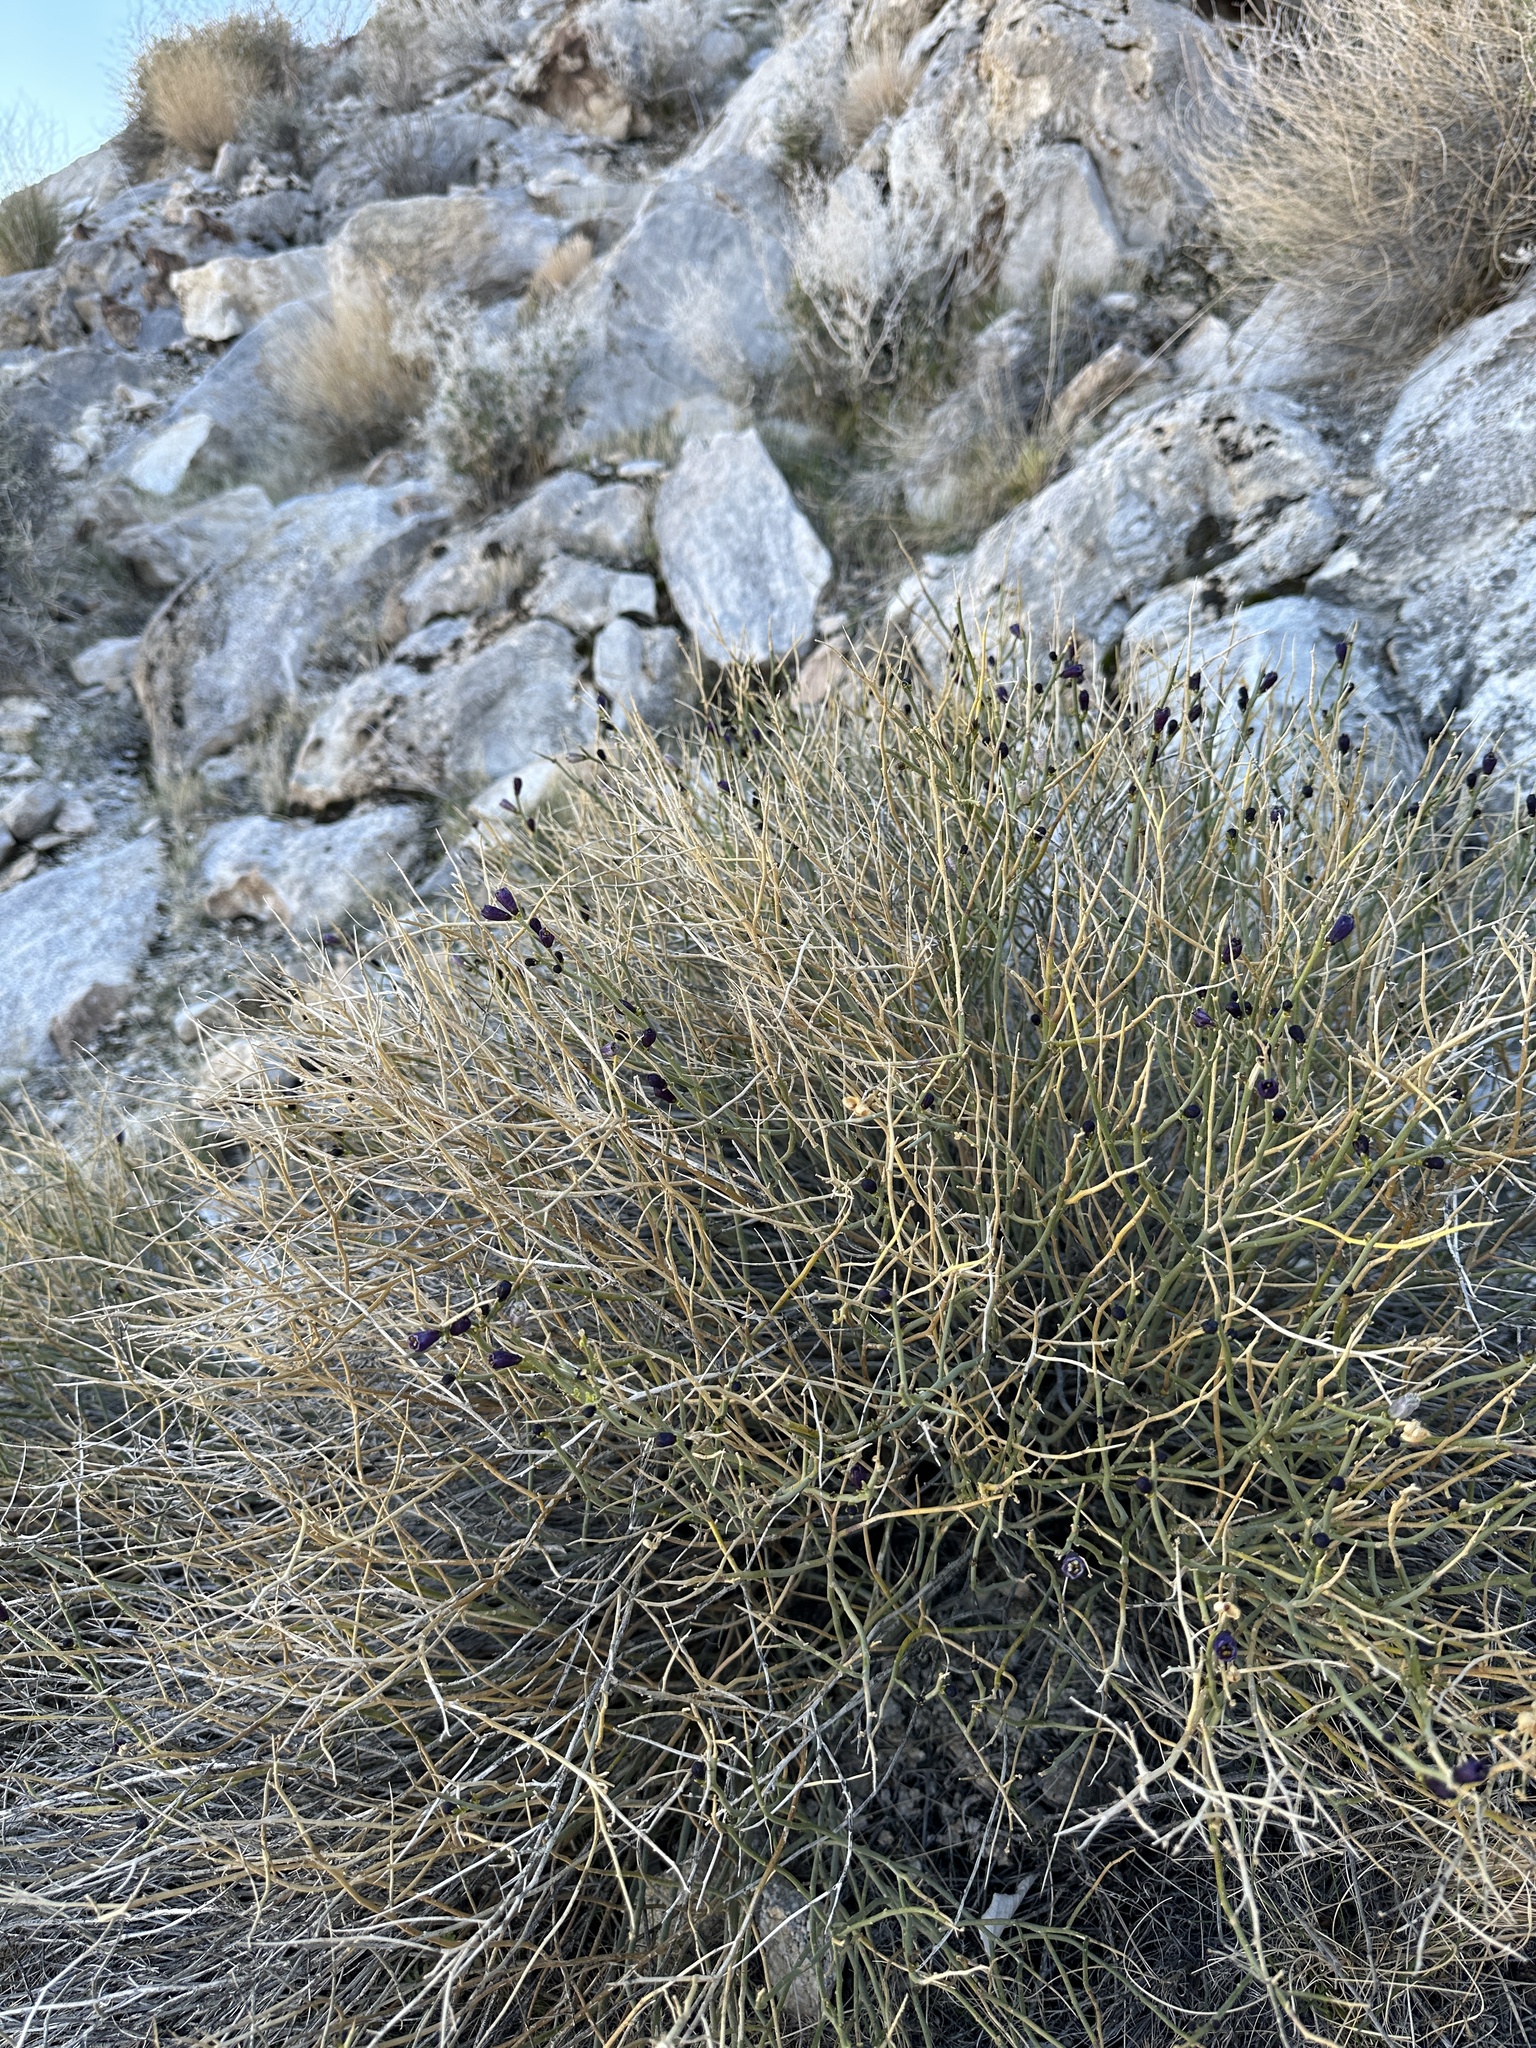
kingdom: Plantae
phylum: Tracheophyta
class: Magnoliopsida
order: Sapindales
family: Rutaceae
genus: Thamnosma
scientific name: Thamnosma montana
